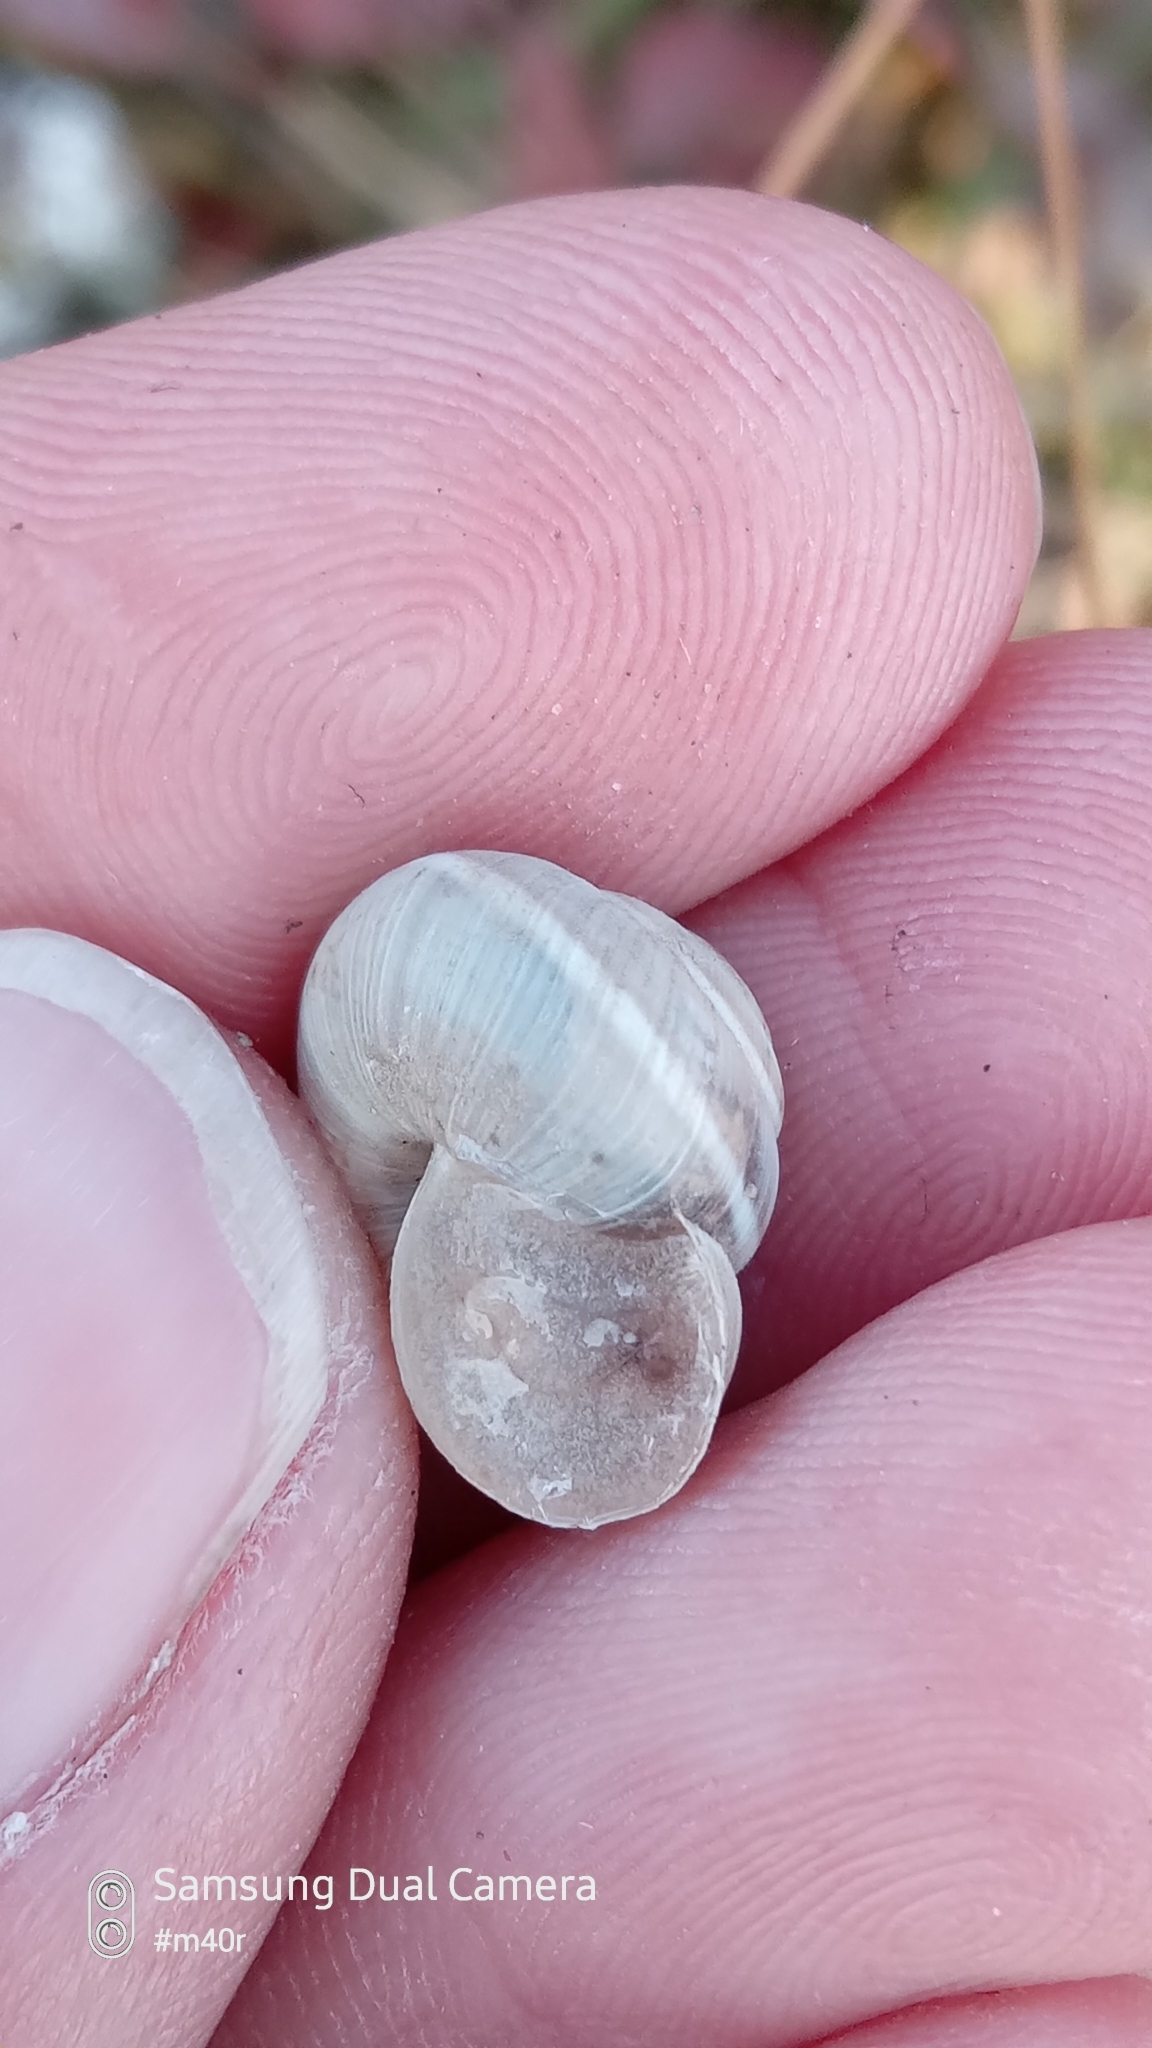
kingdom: Animalia
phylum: Mollusca
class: Gastropoda
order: Stylommatophora
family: Hygromiidae
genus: Harmozica
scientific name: Harmozica ravergiensis
